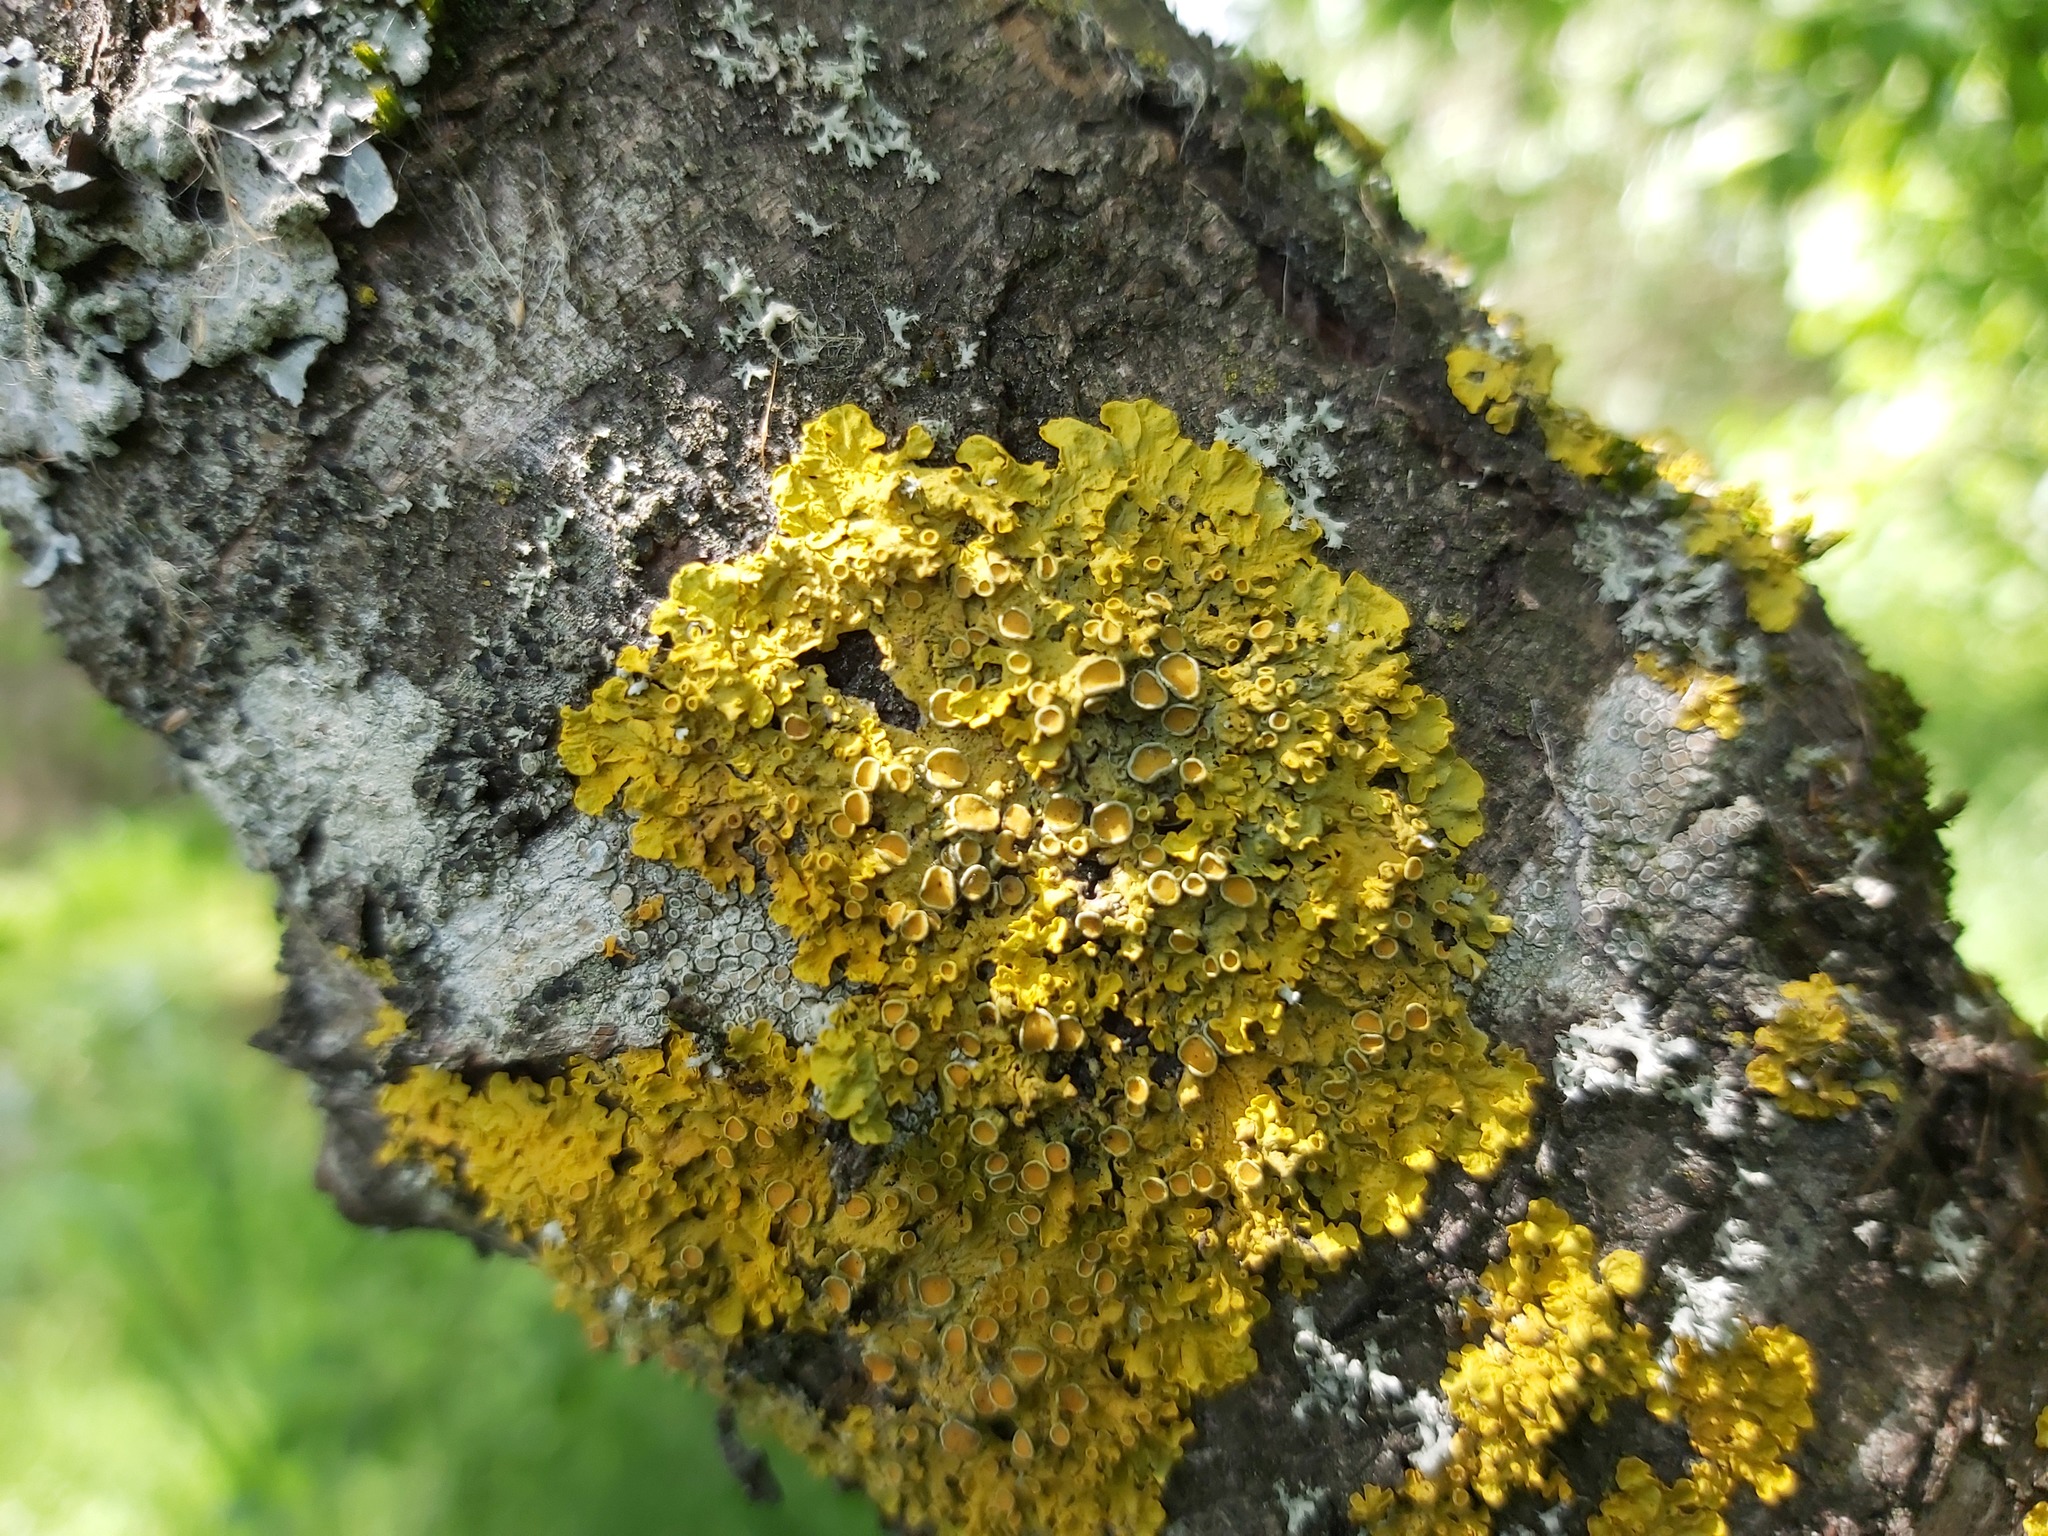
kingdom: Fungi
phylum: Ascomycota
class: Lecanoromycetes
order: Teloschistales
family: Teloschistaceae
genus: Xanthoria
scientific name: Xanthoria parietina
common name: Common orange lichen
